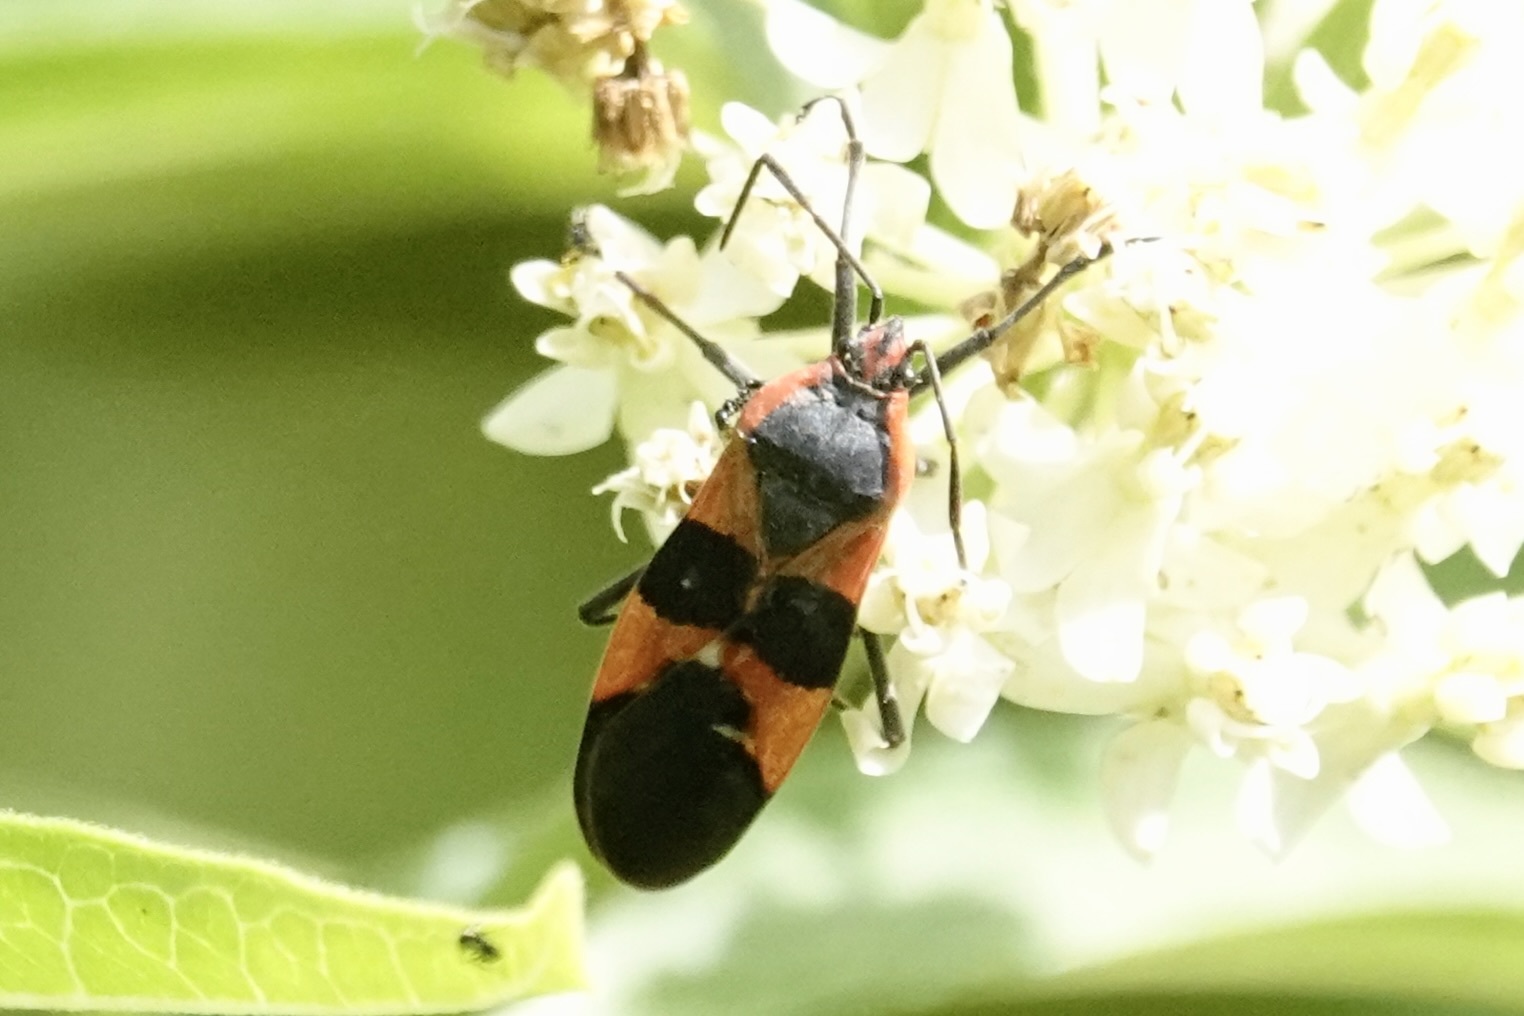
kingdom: Animalia
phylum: Arthropoda
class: Insecta
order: Hemiptera
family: Lygaeidae
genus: Oncopeltus
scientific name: Oncopeltus fasciatus
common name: Large milkweed bug
